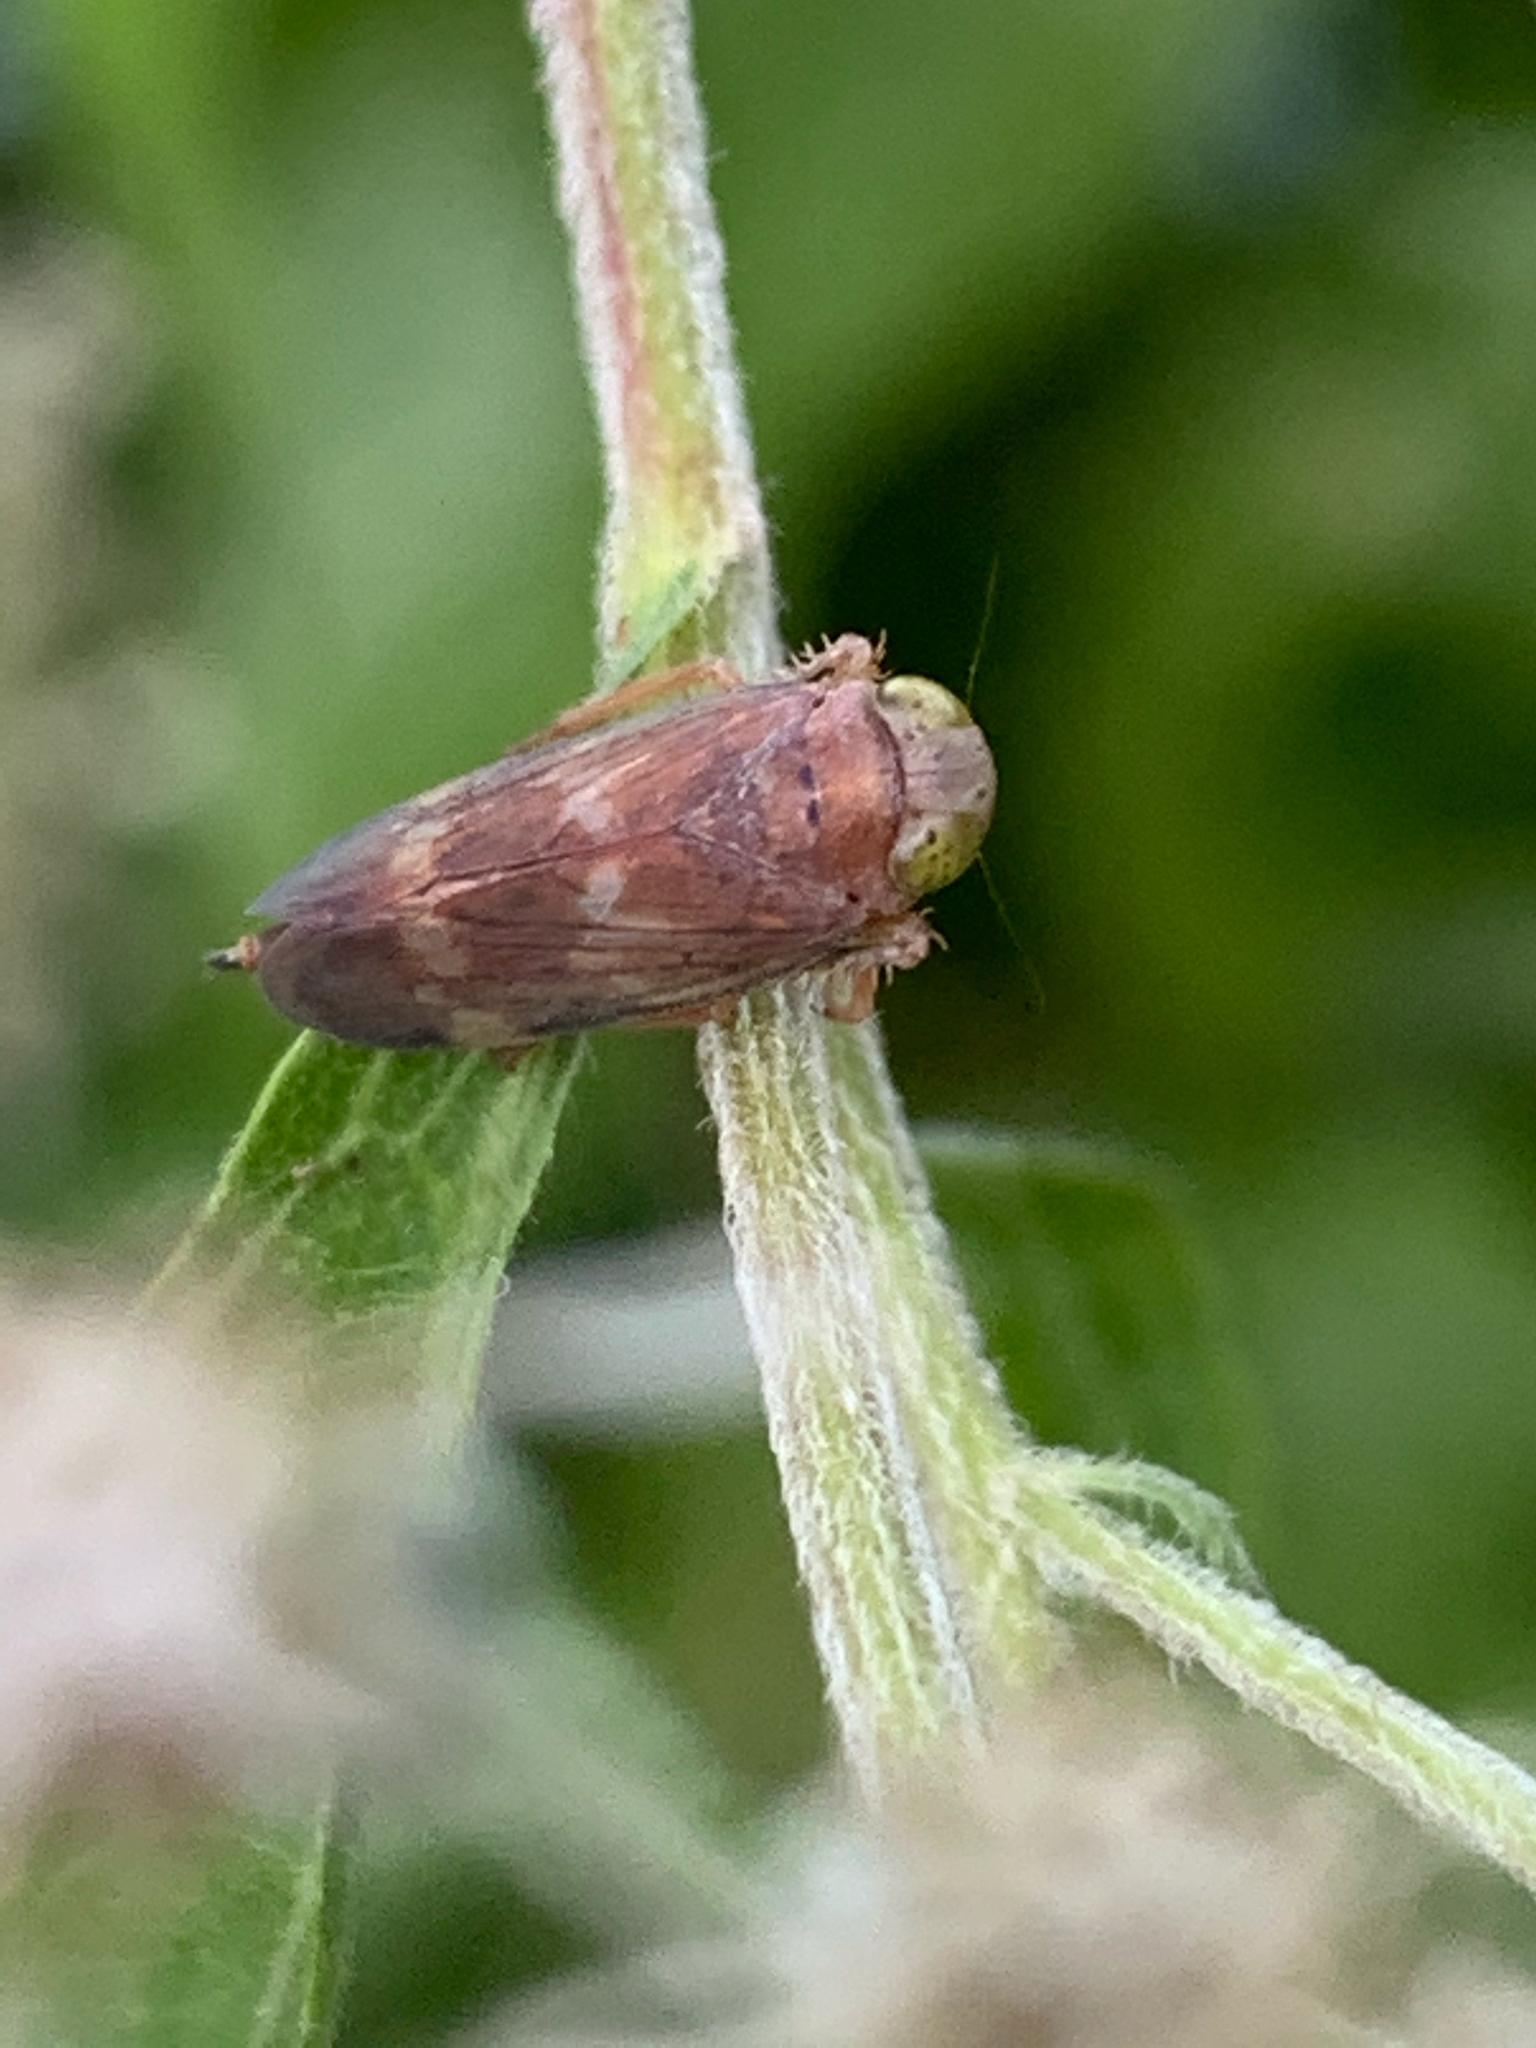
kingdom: Animalia
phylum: Arthropoda
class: Insecta
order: Hemiptera
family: Cicadellidae
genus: Jikradia
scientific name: Jikradia olitoria
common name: Coppery leafhopper
